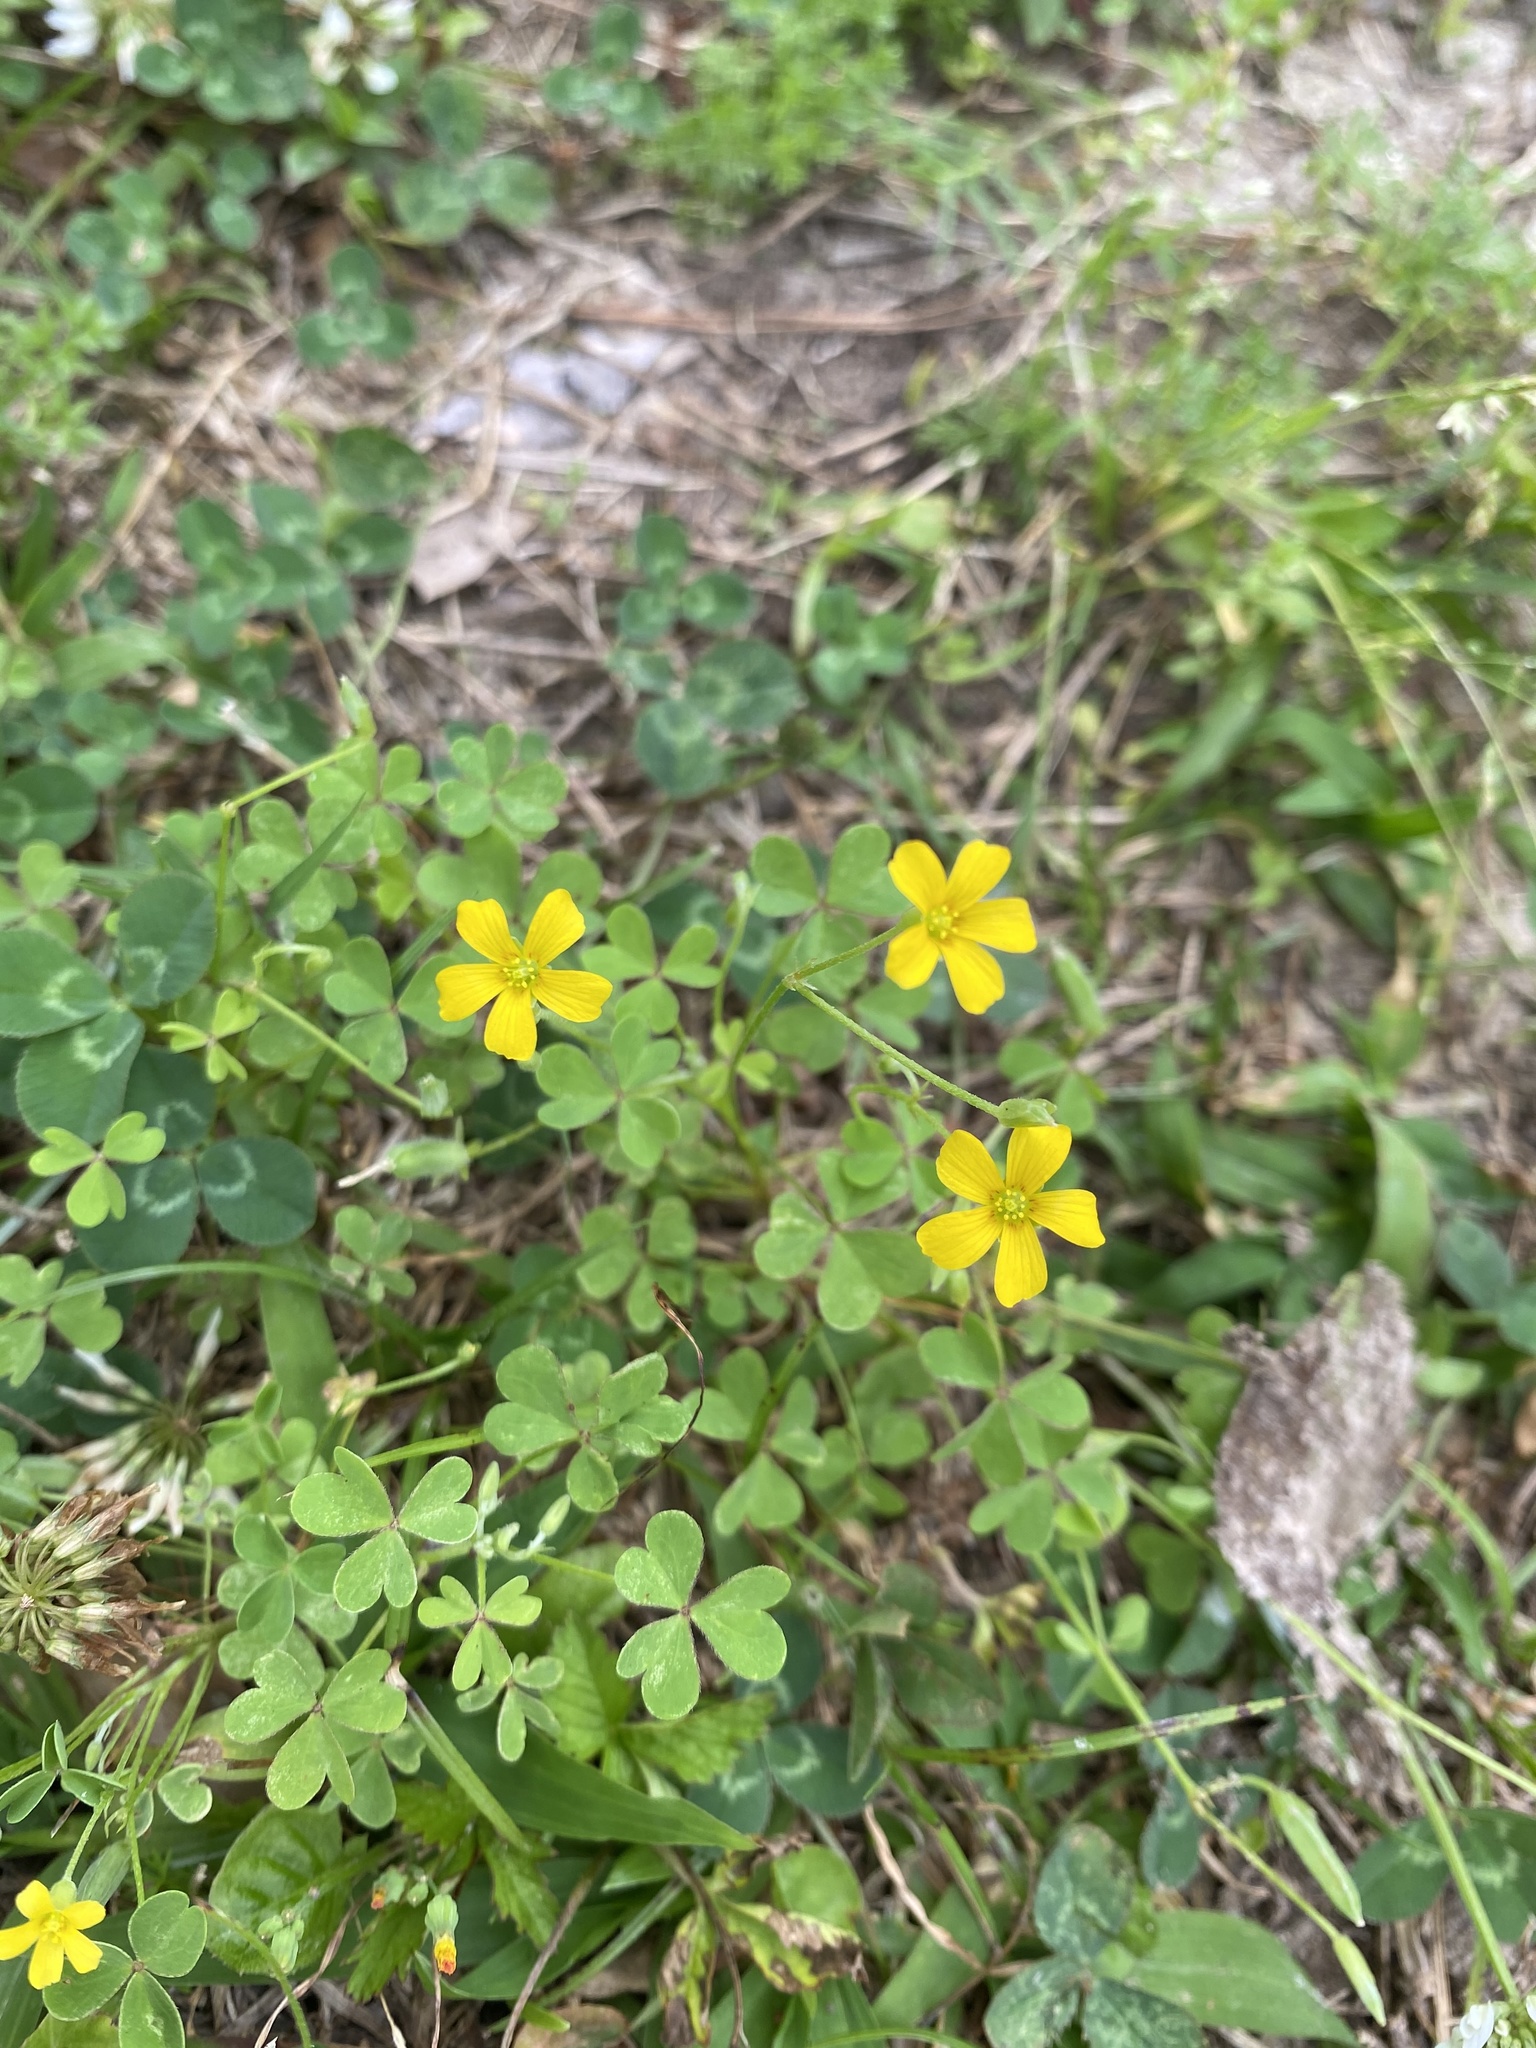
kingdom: Plantae
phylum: Tracheophyta
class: Magnoliopsida
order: Oxalidales
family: Oxalidaceae
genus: Oxalis
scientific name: Oxalis dillenii
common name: Sussex yellow-sorrel
